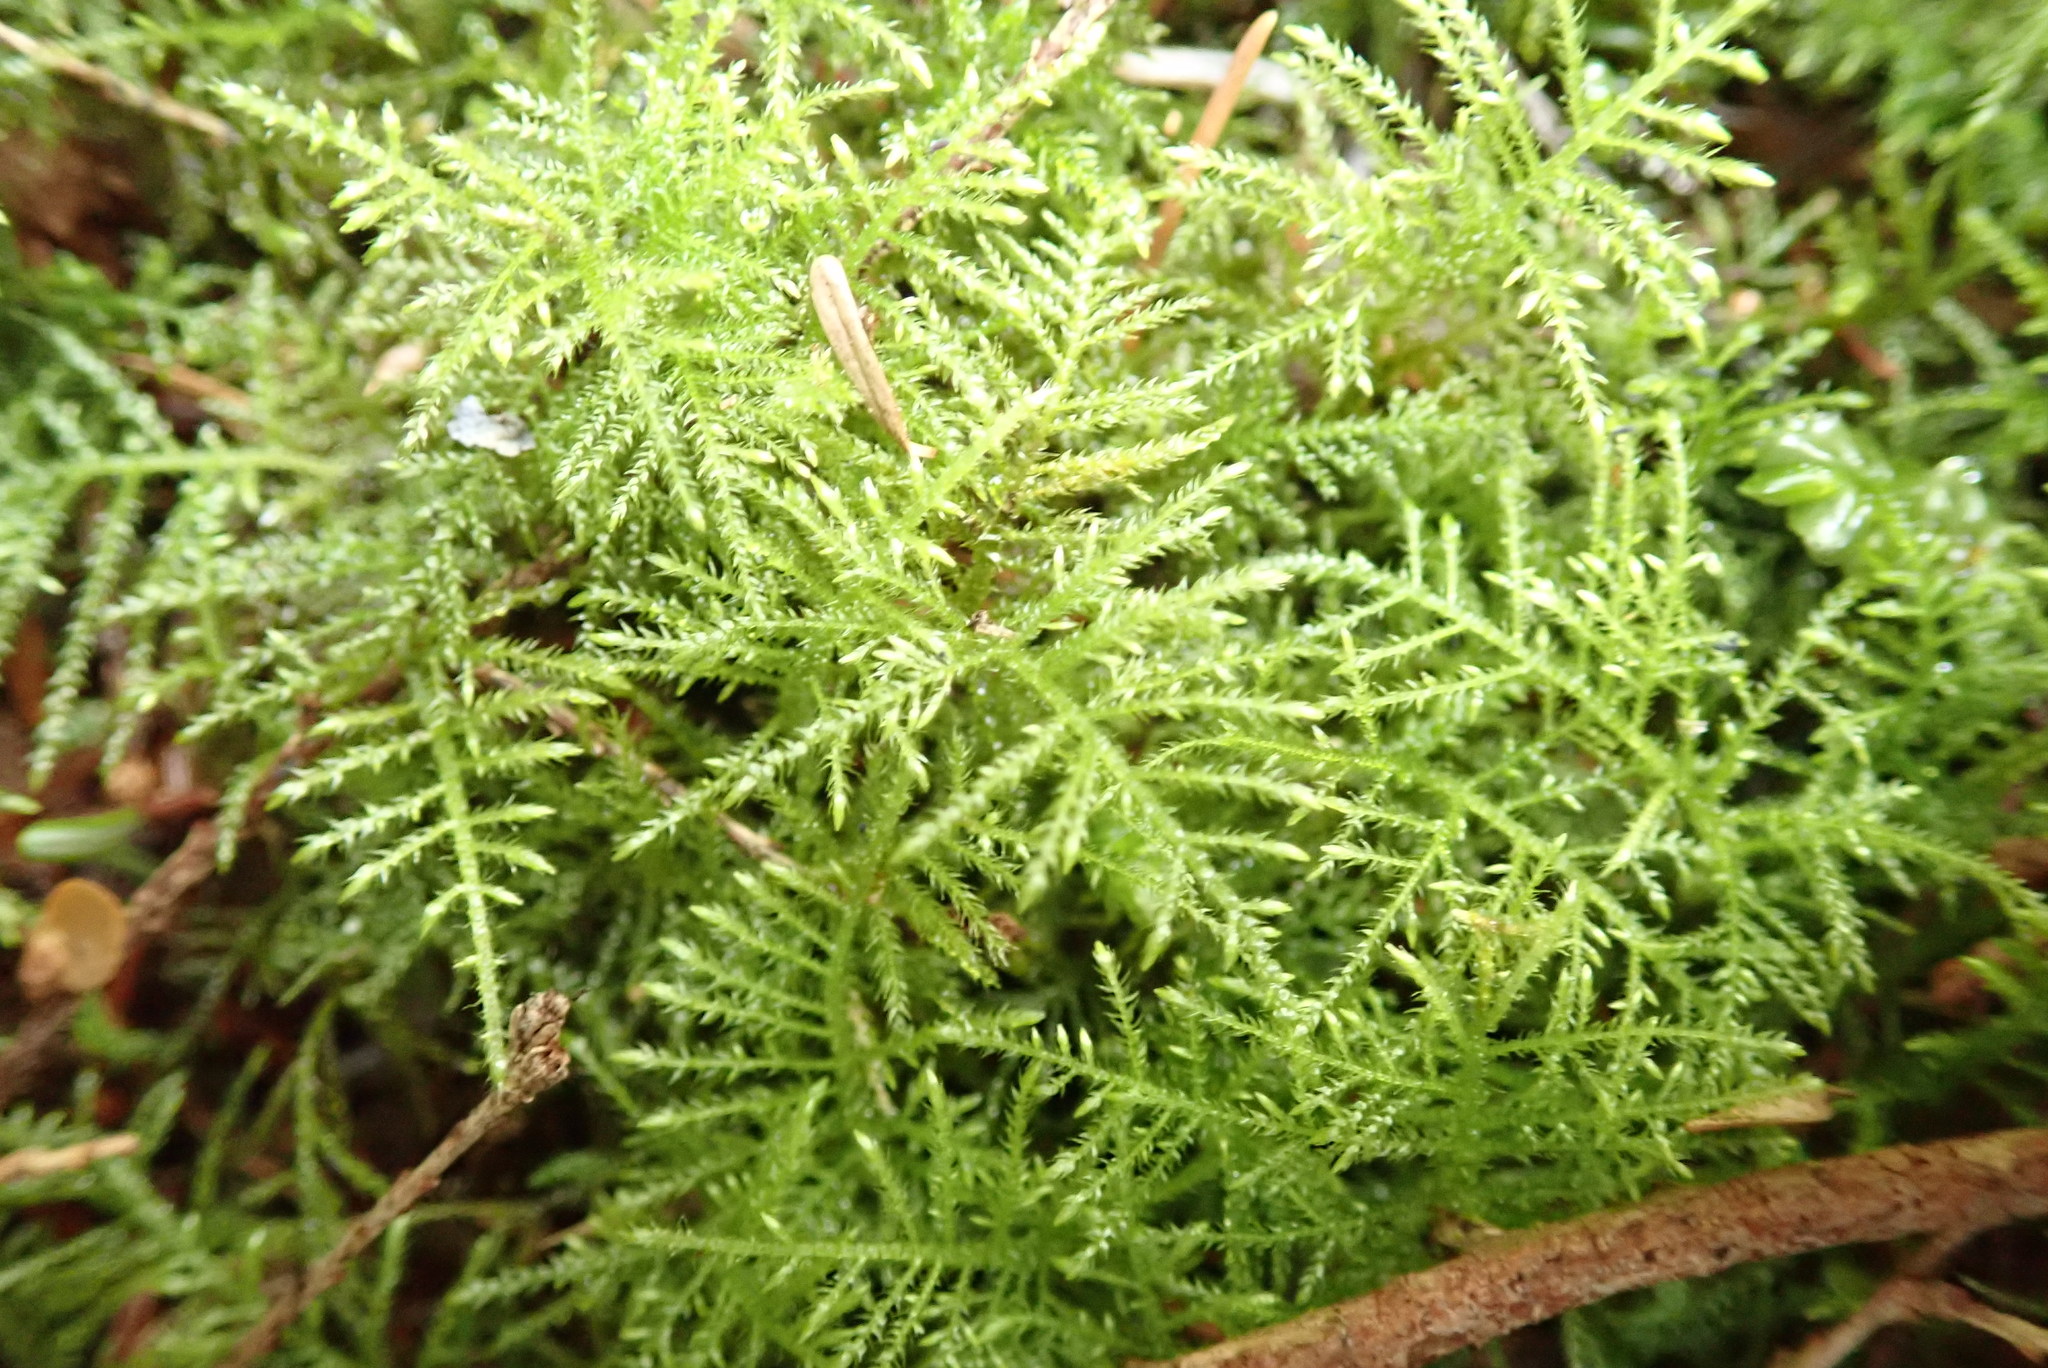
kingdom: Plantae
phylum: Bryophyta
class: Bryopsida
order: Hypnales
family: Brachytheciaceae
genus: Kindbergia
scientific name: Kindbergia praelonga
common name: Slender beaked moss
